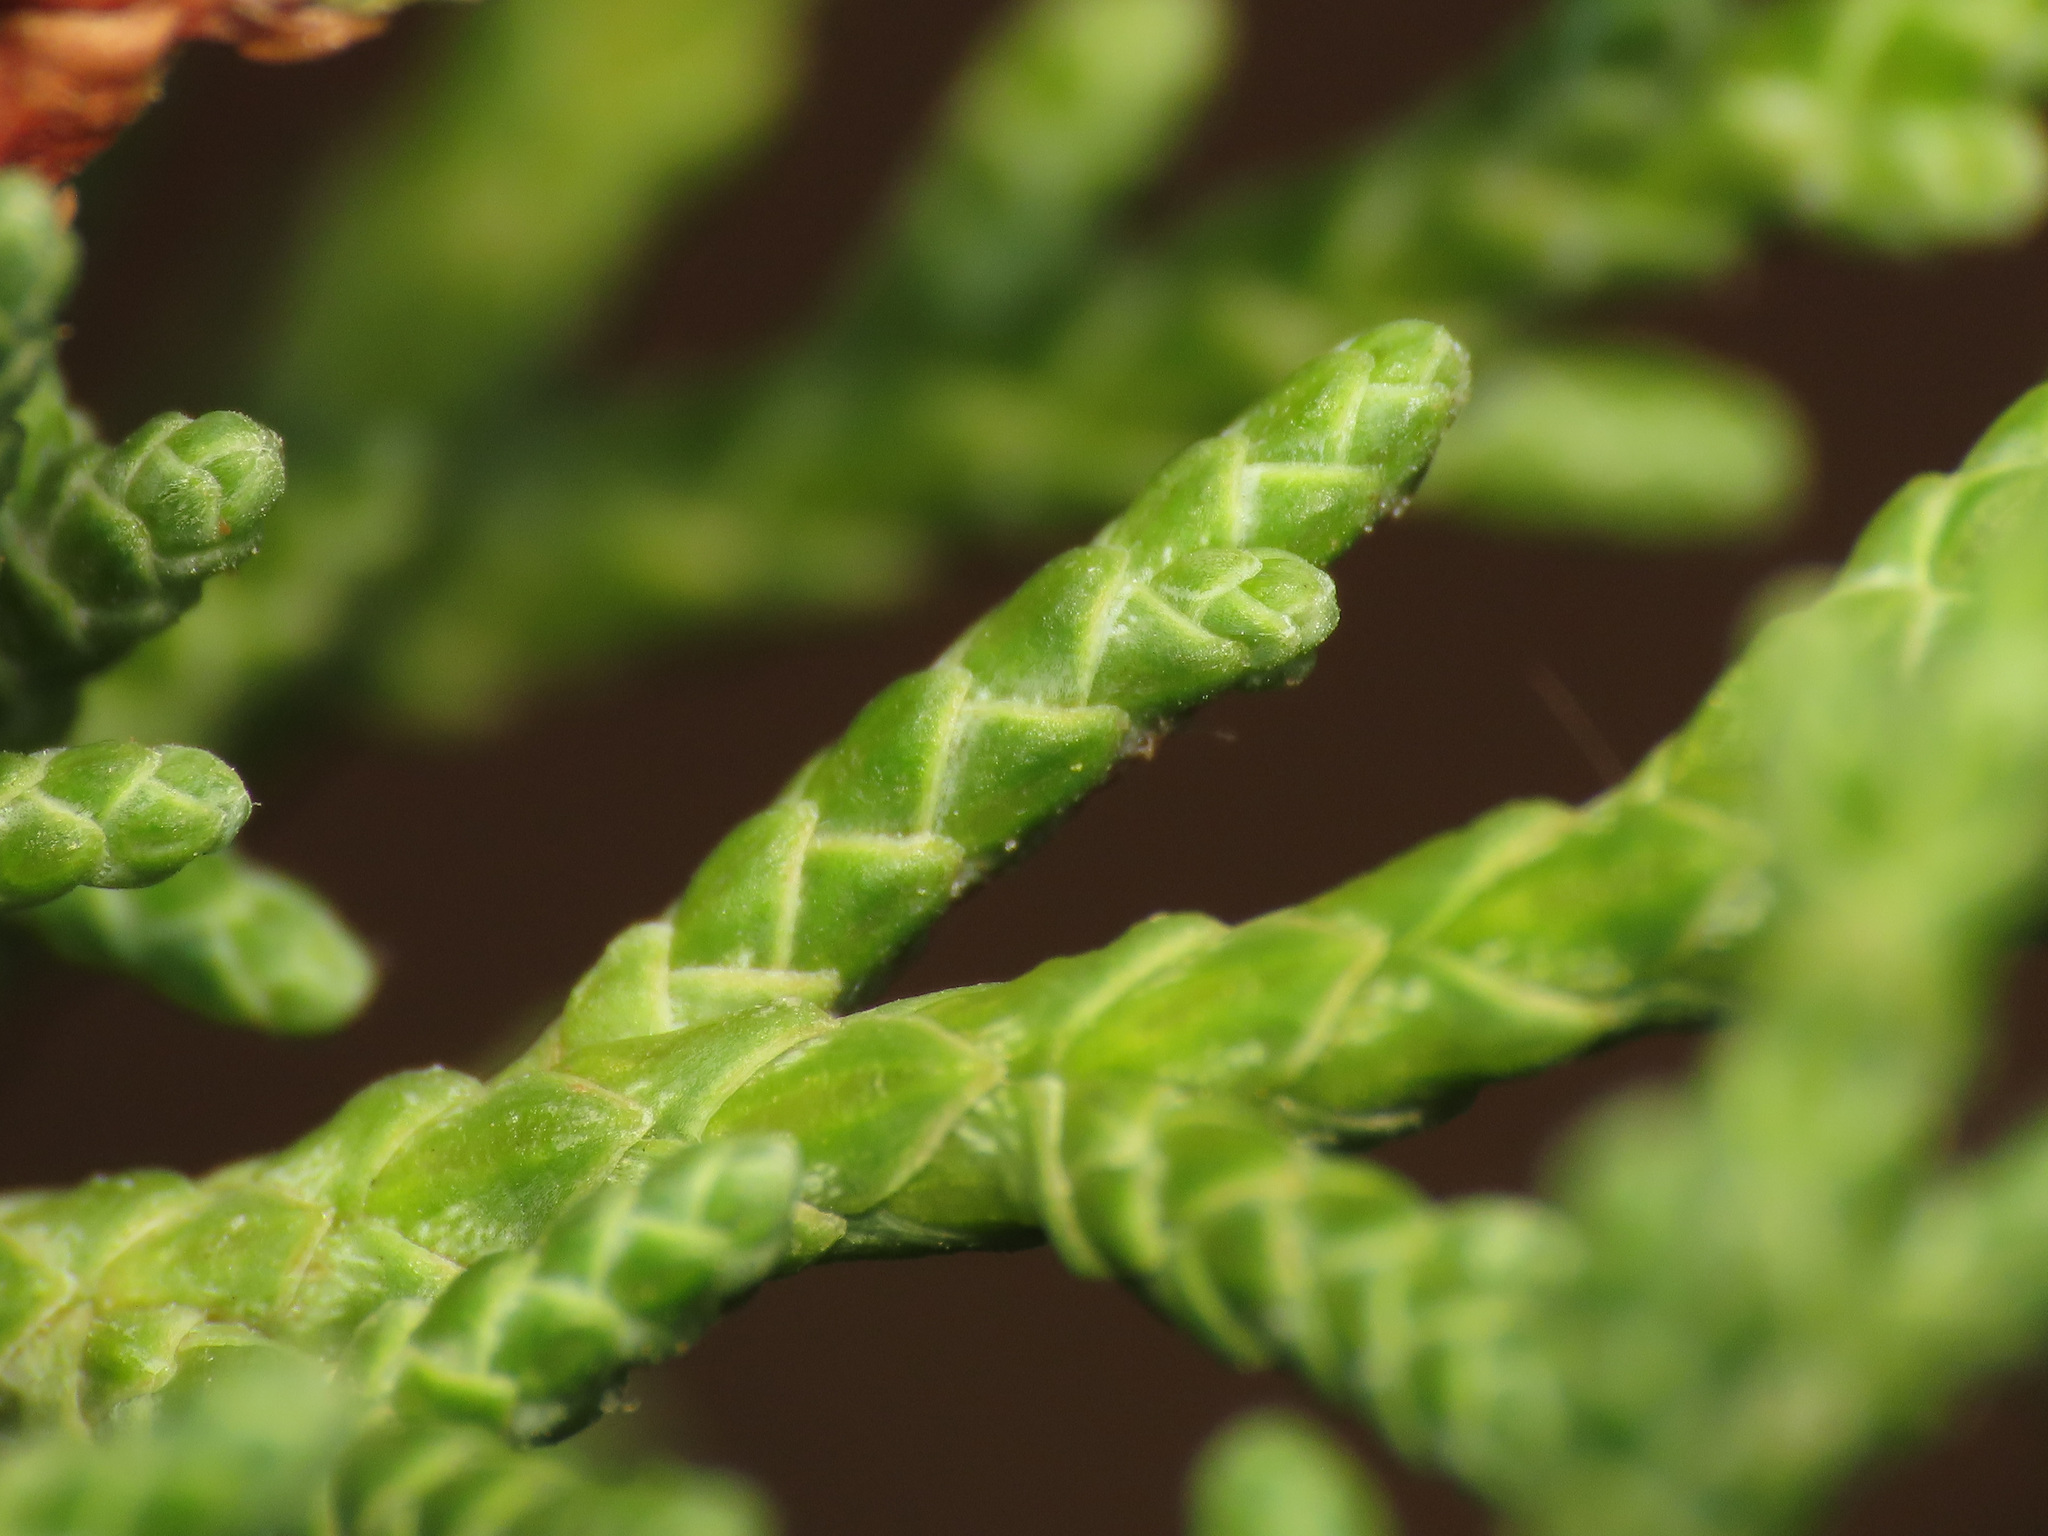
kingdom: Plantae
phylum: Tracheophyta
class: Pinopsida
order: Pinales
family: Cupressaceae
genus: Juniperus
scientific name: Juniperus phoenicea
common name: Phoenician juniper
